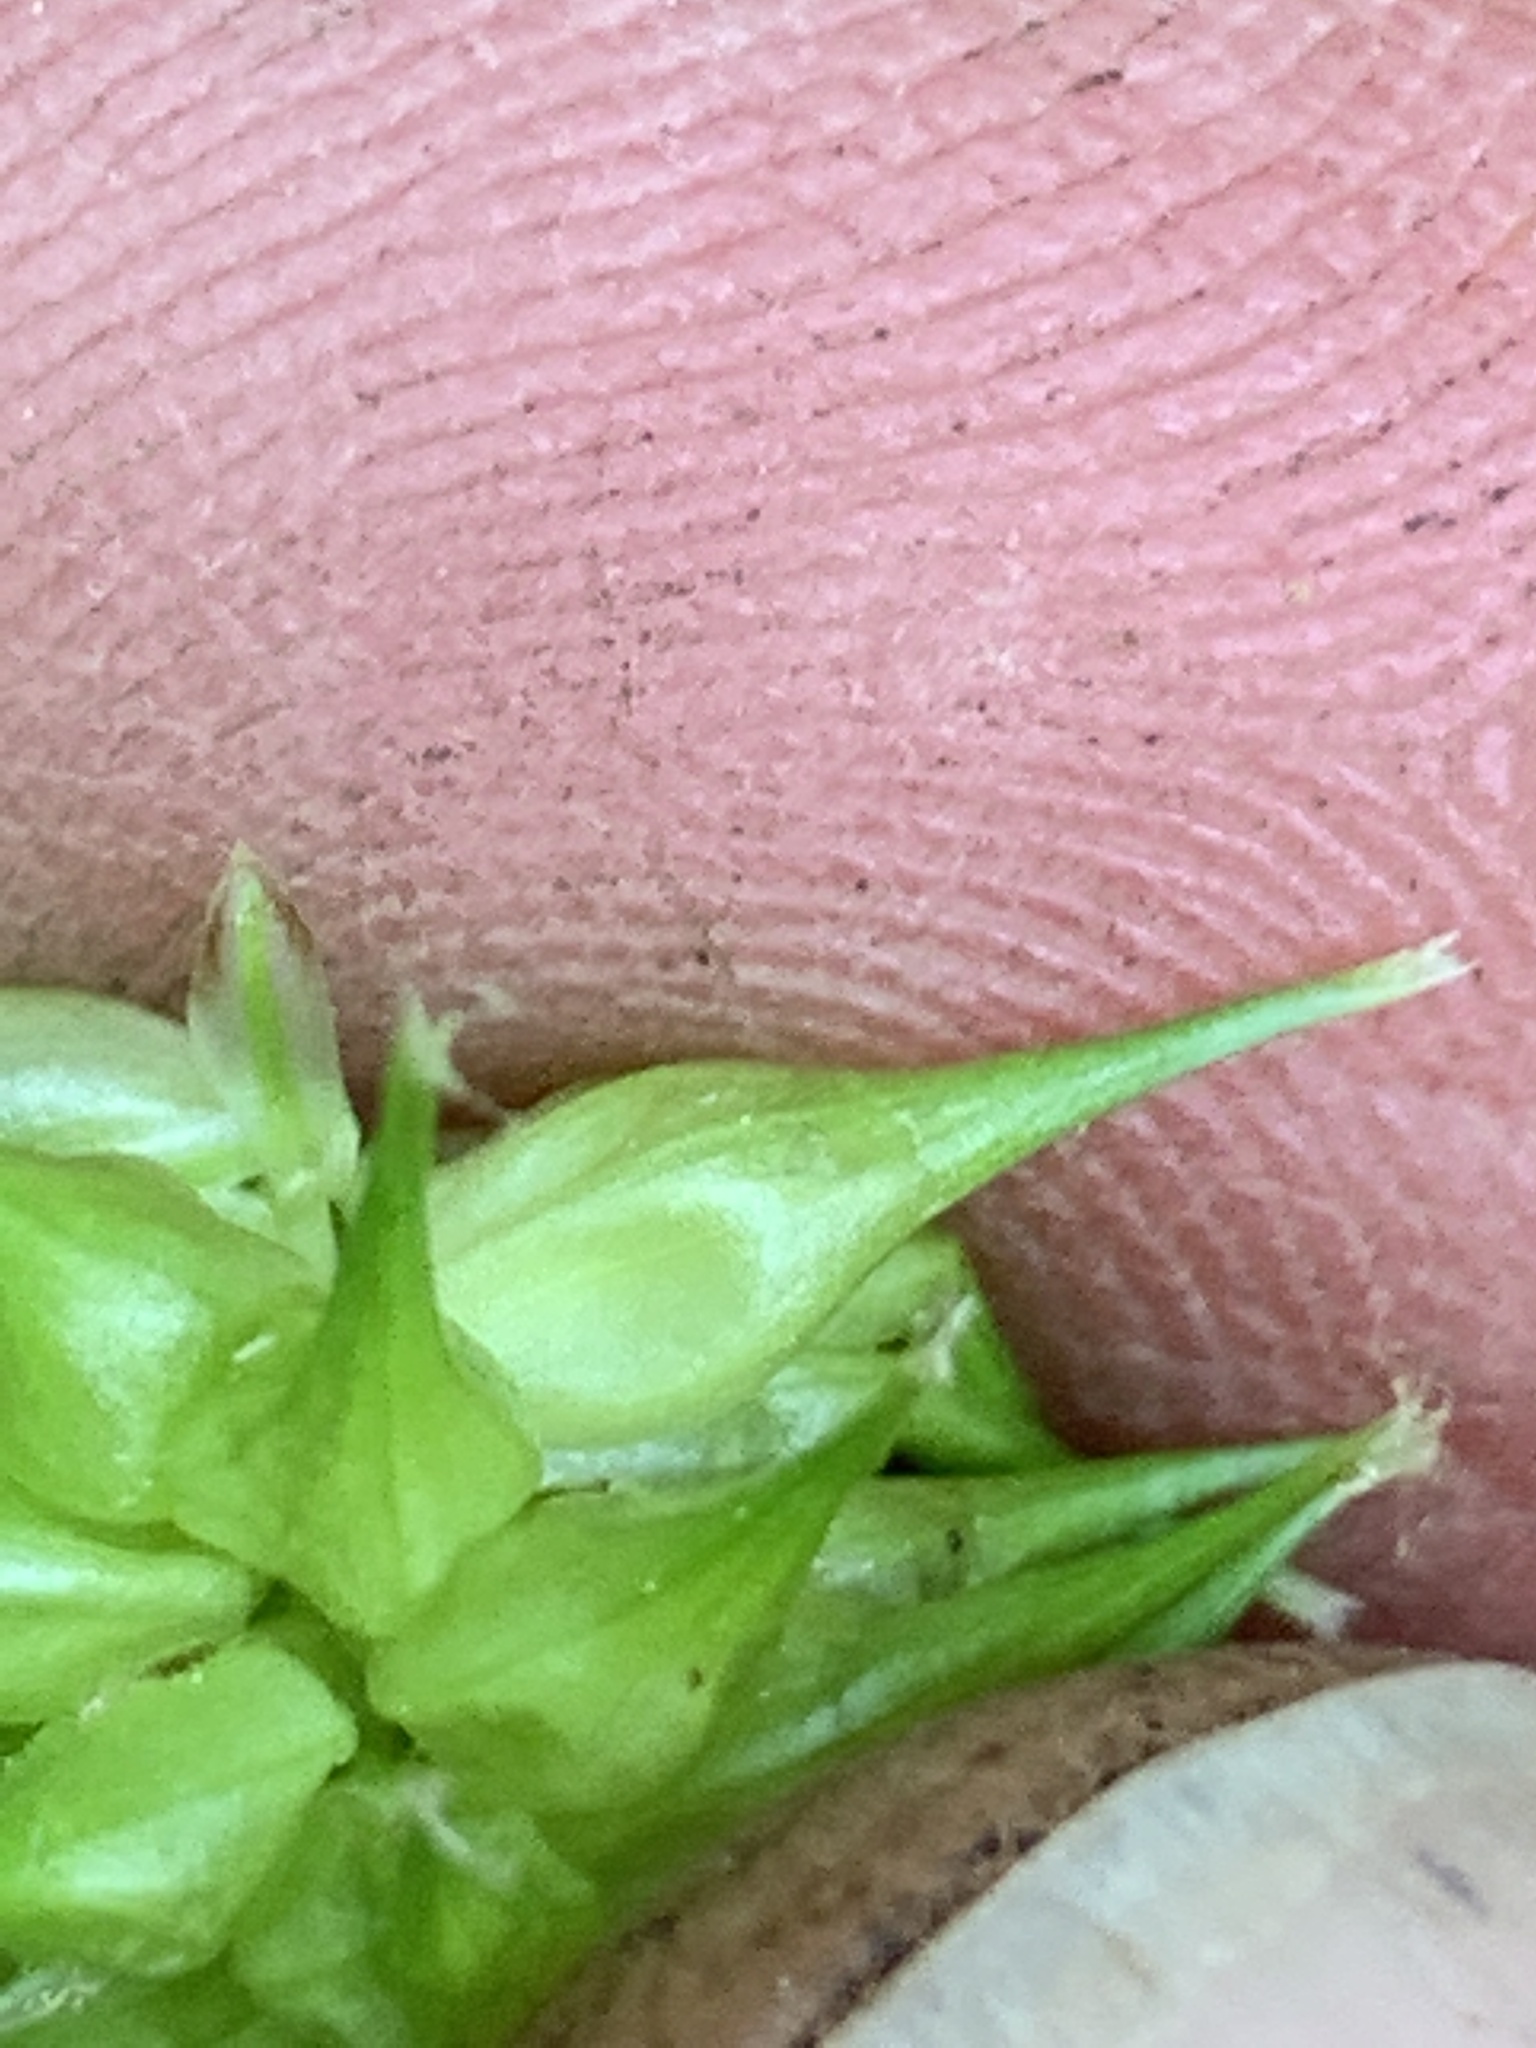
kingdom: Plantae
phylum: Tracheophyta
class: Liliopsida
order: Poales
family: Cyperaceae
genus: Carex
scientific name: Carex retrorsa
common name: Knot-sheath sedge
